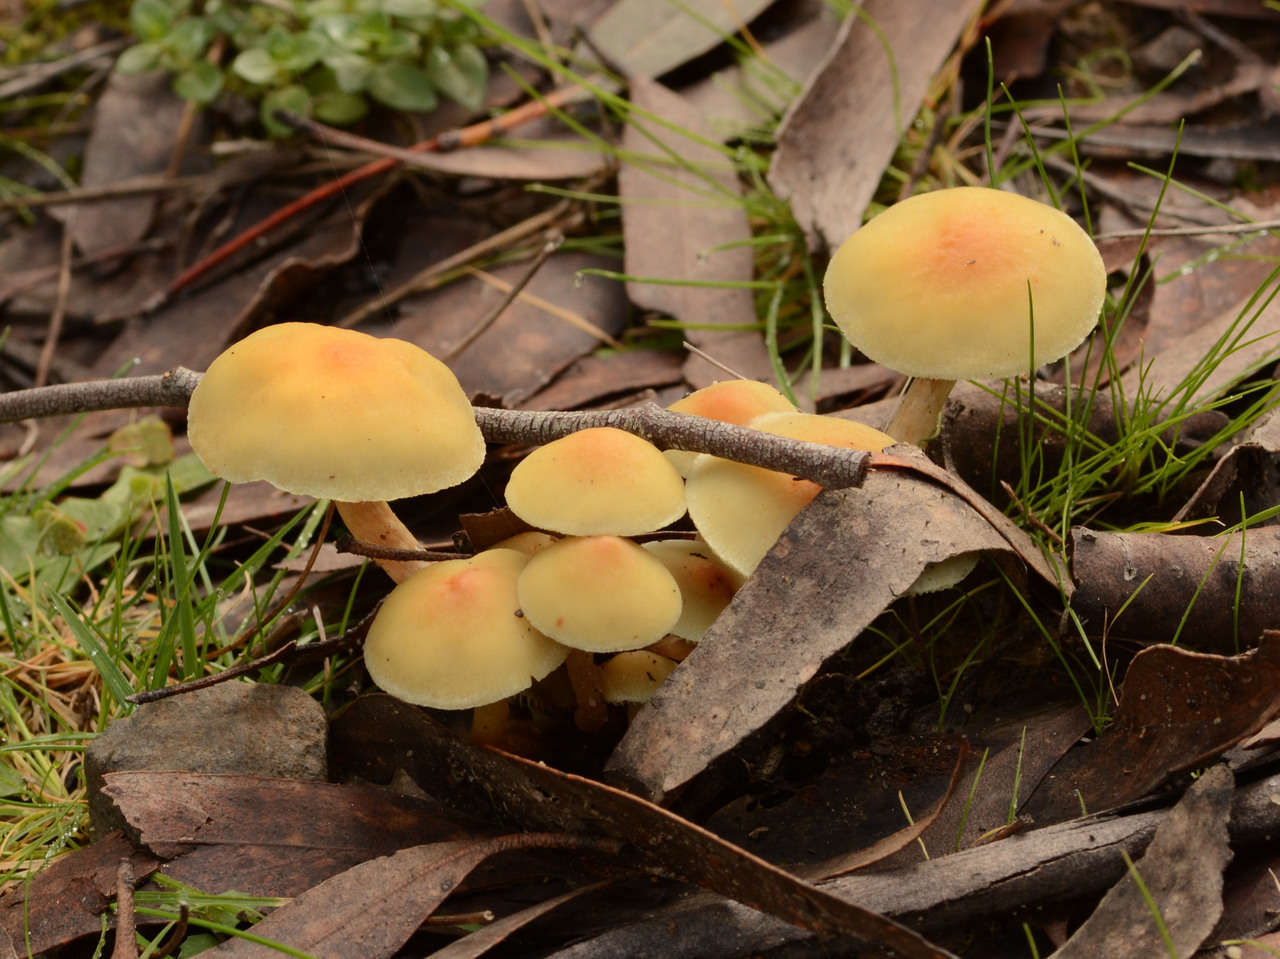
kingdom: Fungi
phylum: Basidiomycota
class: Agaricomycetes
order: Agaricales
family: Strophariaceae
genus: Hypholoma
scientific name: Hypholoma fasciculare
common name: Sulphur tuft
